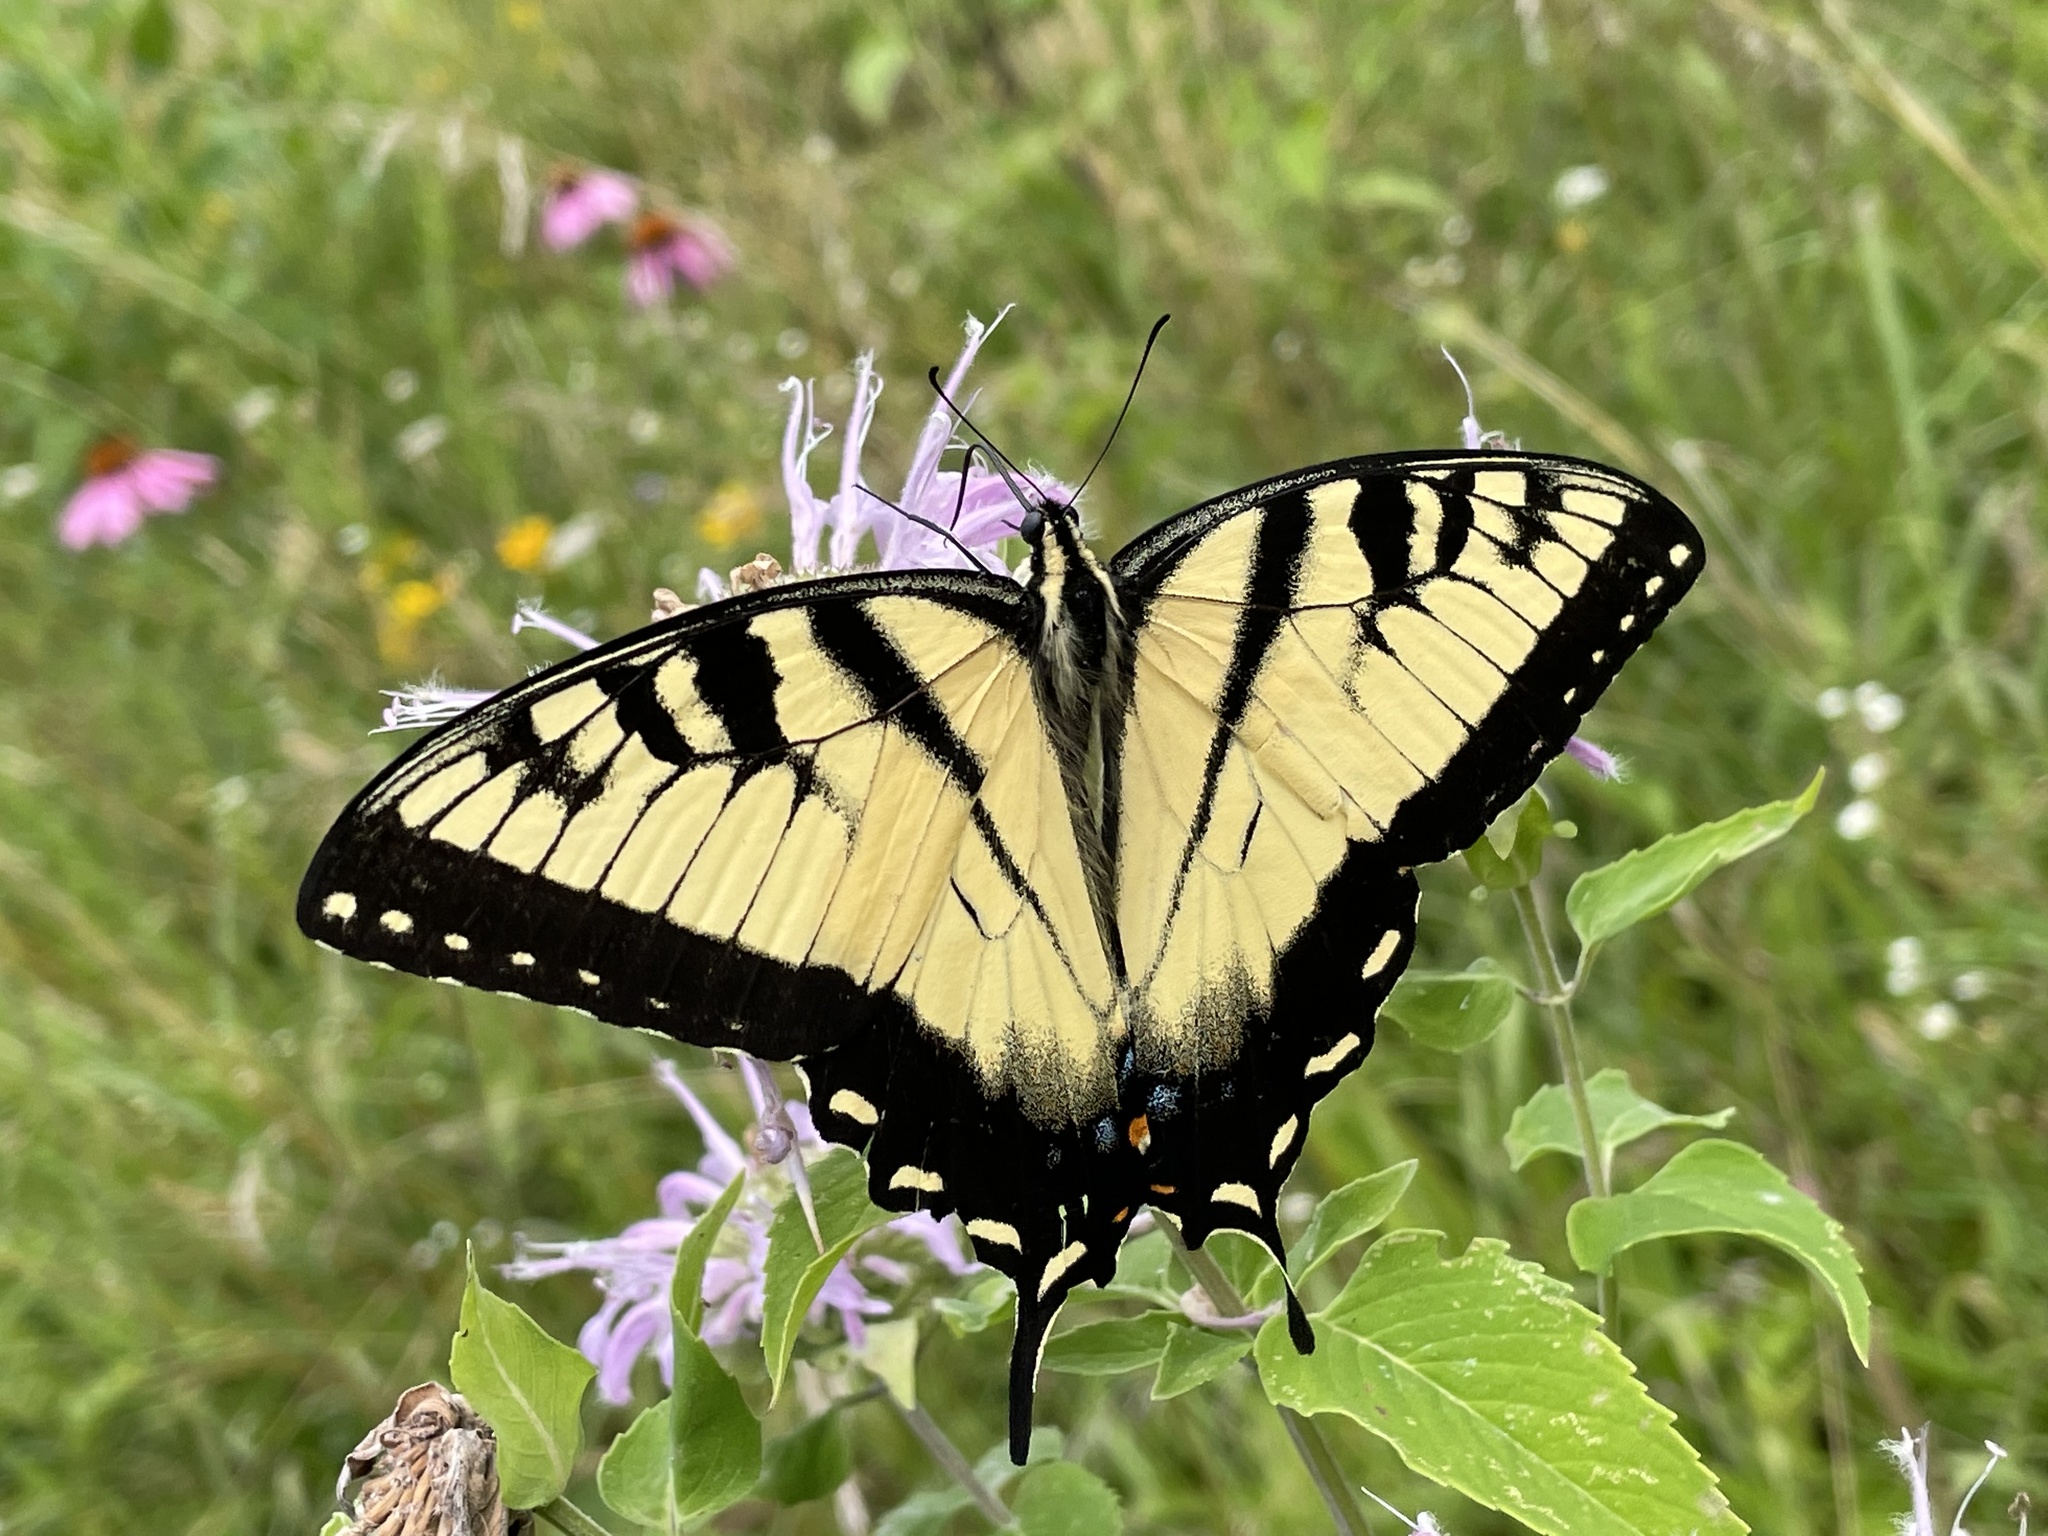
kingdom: Animalia
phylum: Arthropoda
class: Insecta
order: Lepidoptera
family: Papilionidae
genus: Papilio
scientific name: Papilio glaucus
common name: Tiger swallowtail
